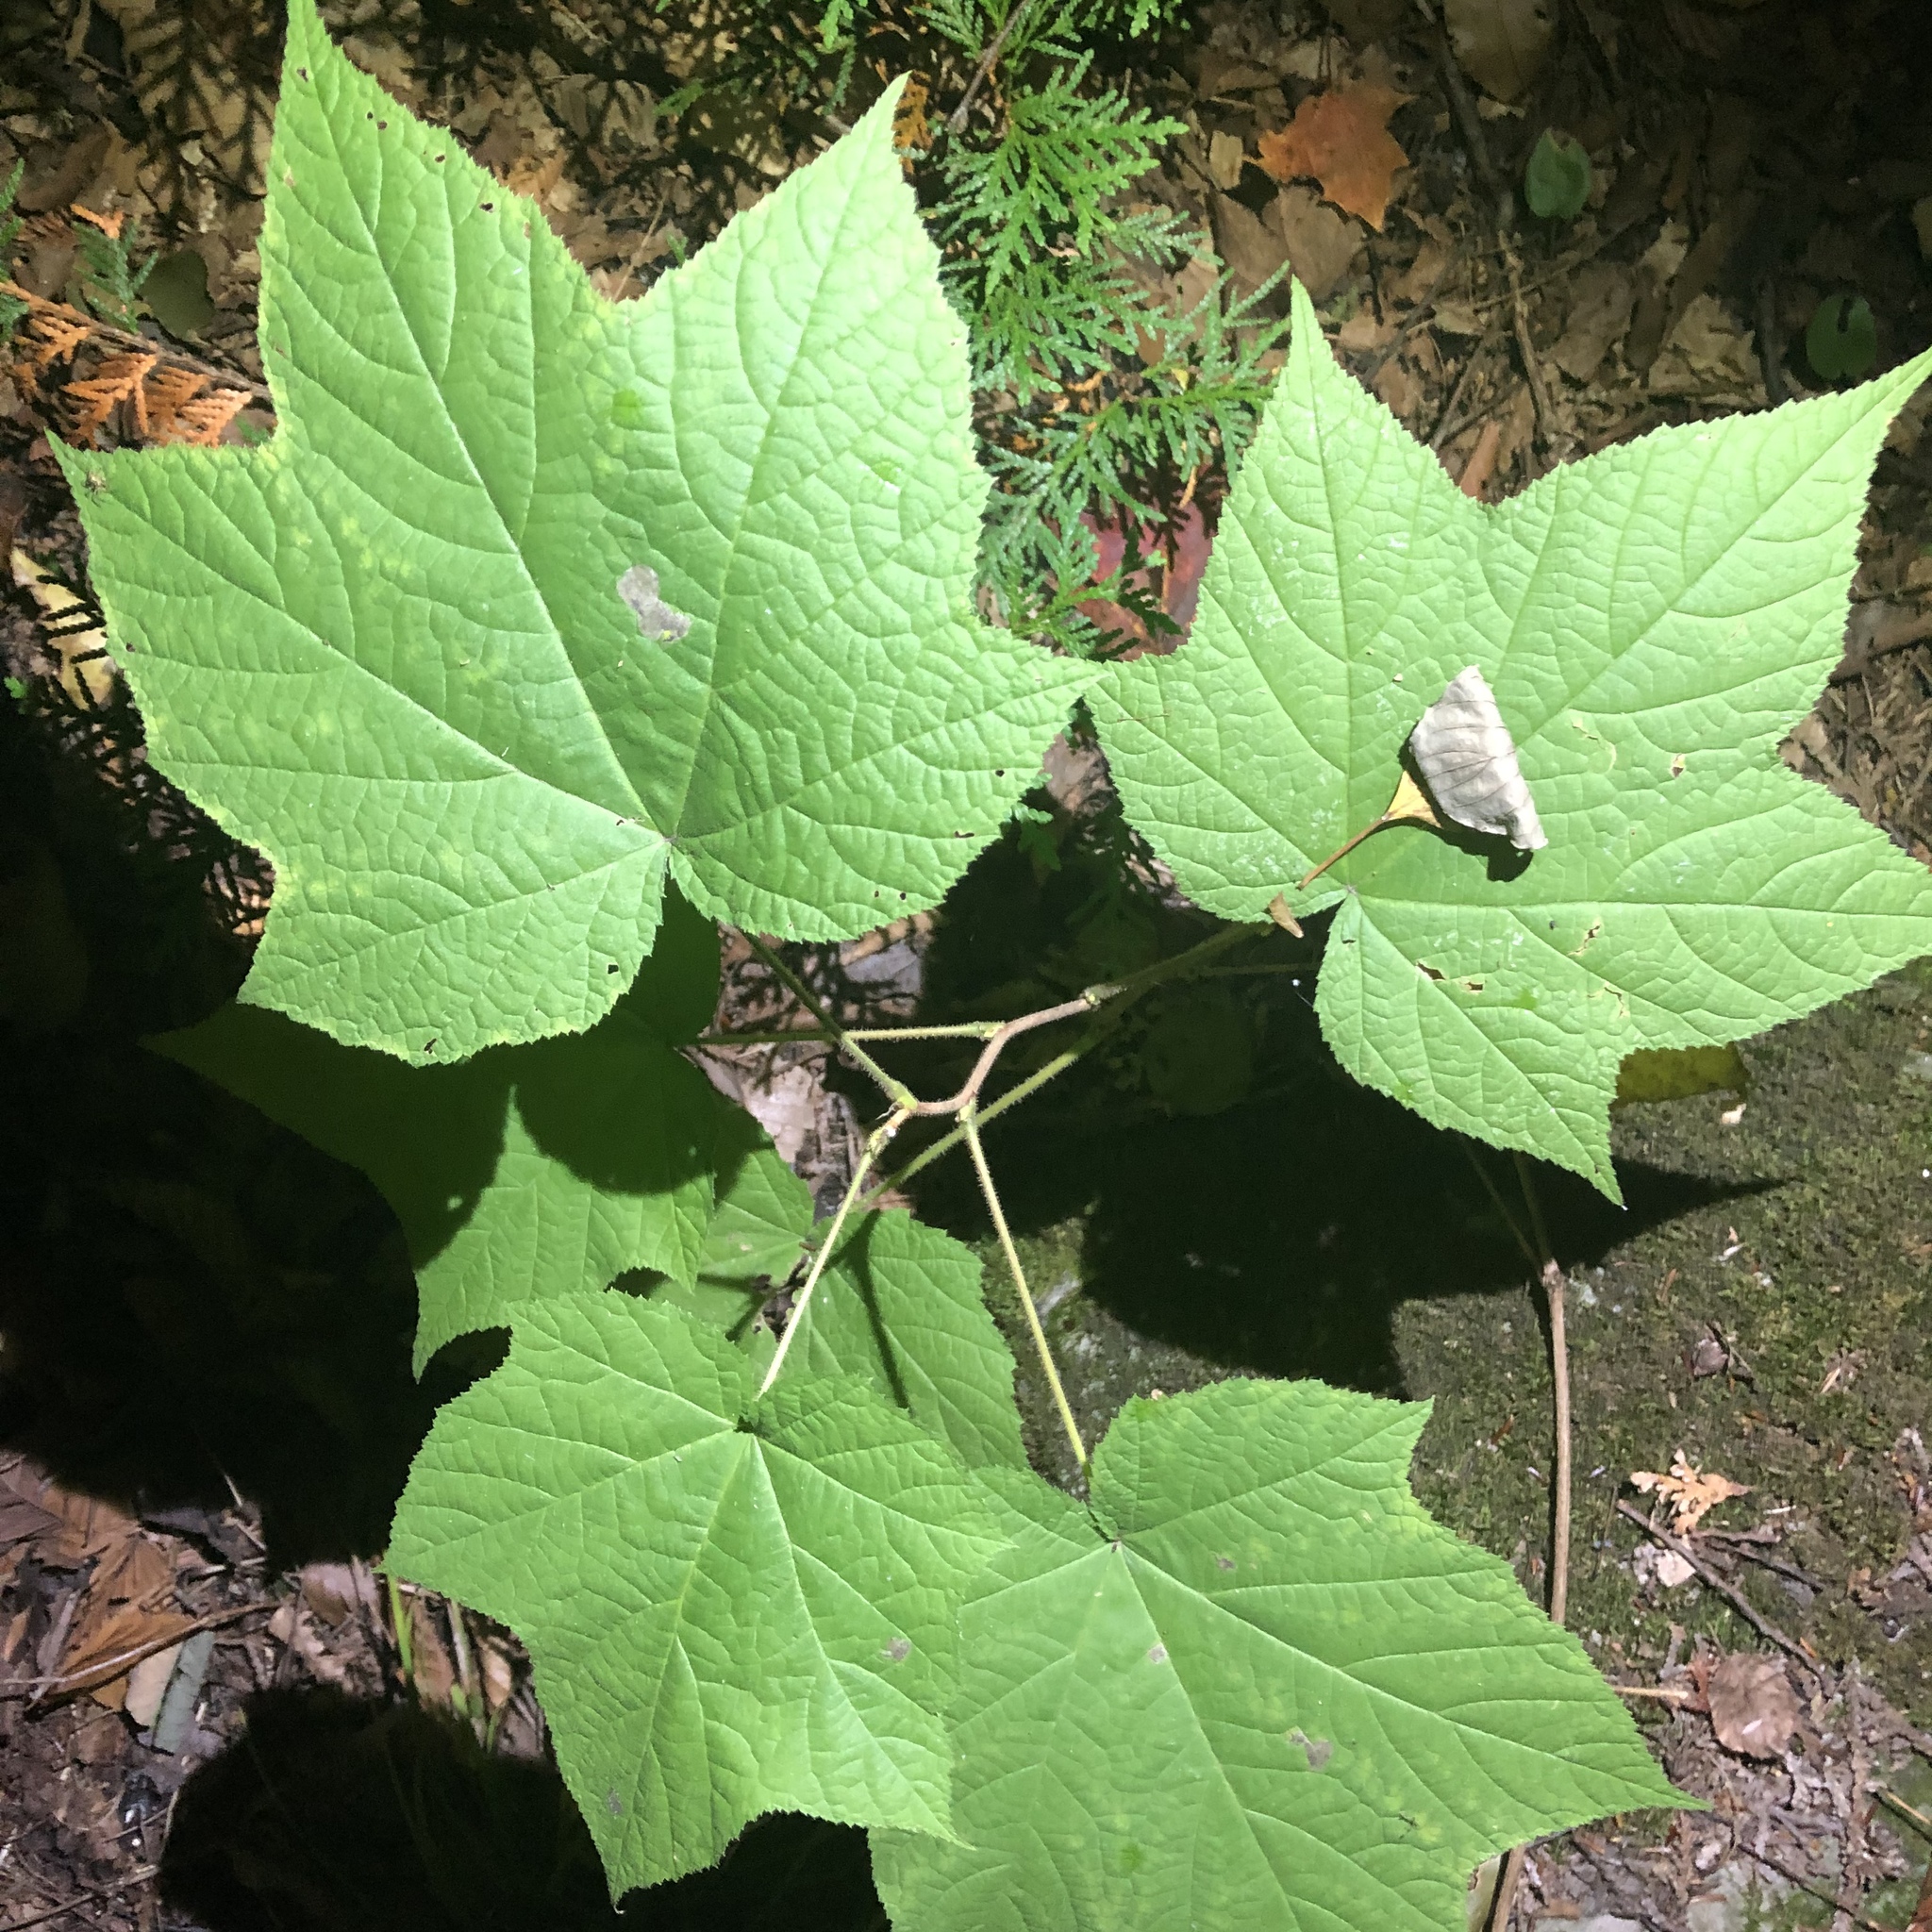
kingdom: Plantae
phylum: Tracheophyta
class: Magnoliopsida
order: Rosales
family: Rosaceae
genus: Rubus
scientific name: Rubus odoratus
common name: Purple-flowered raspberry
